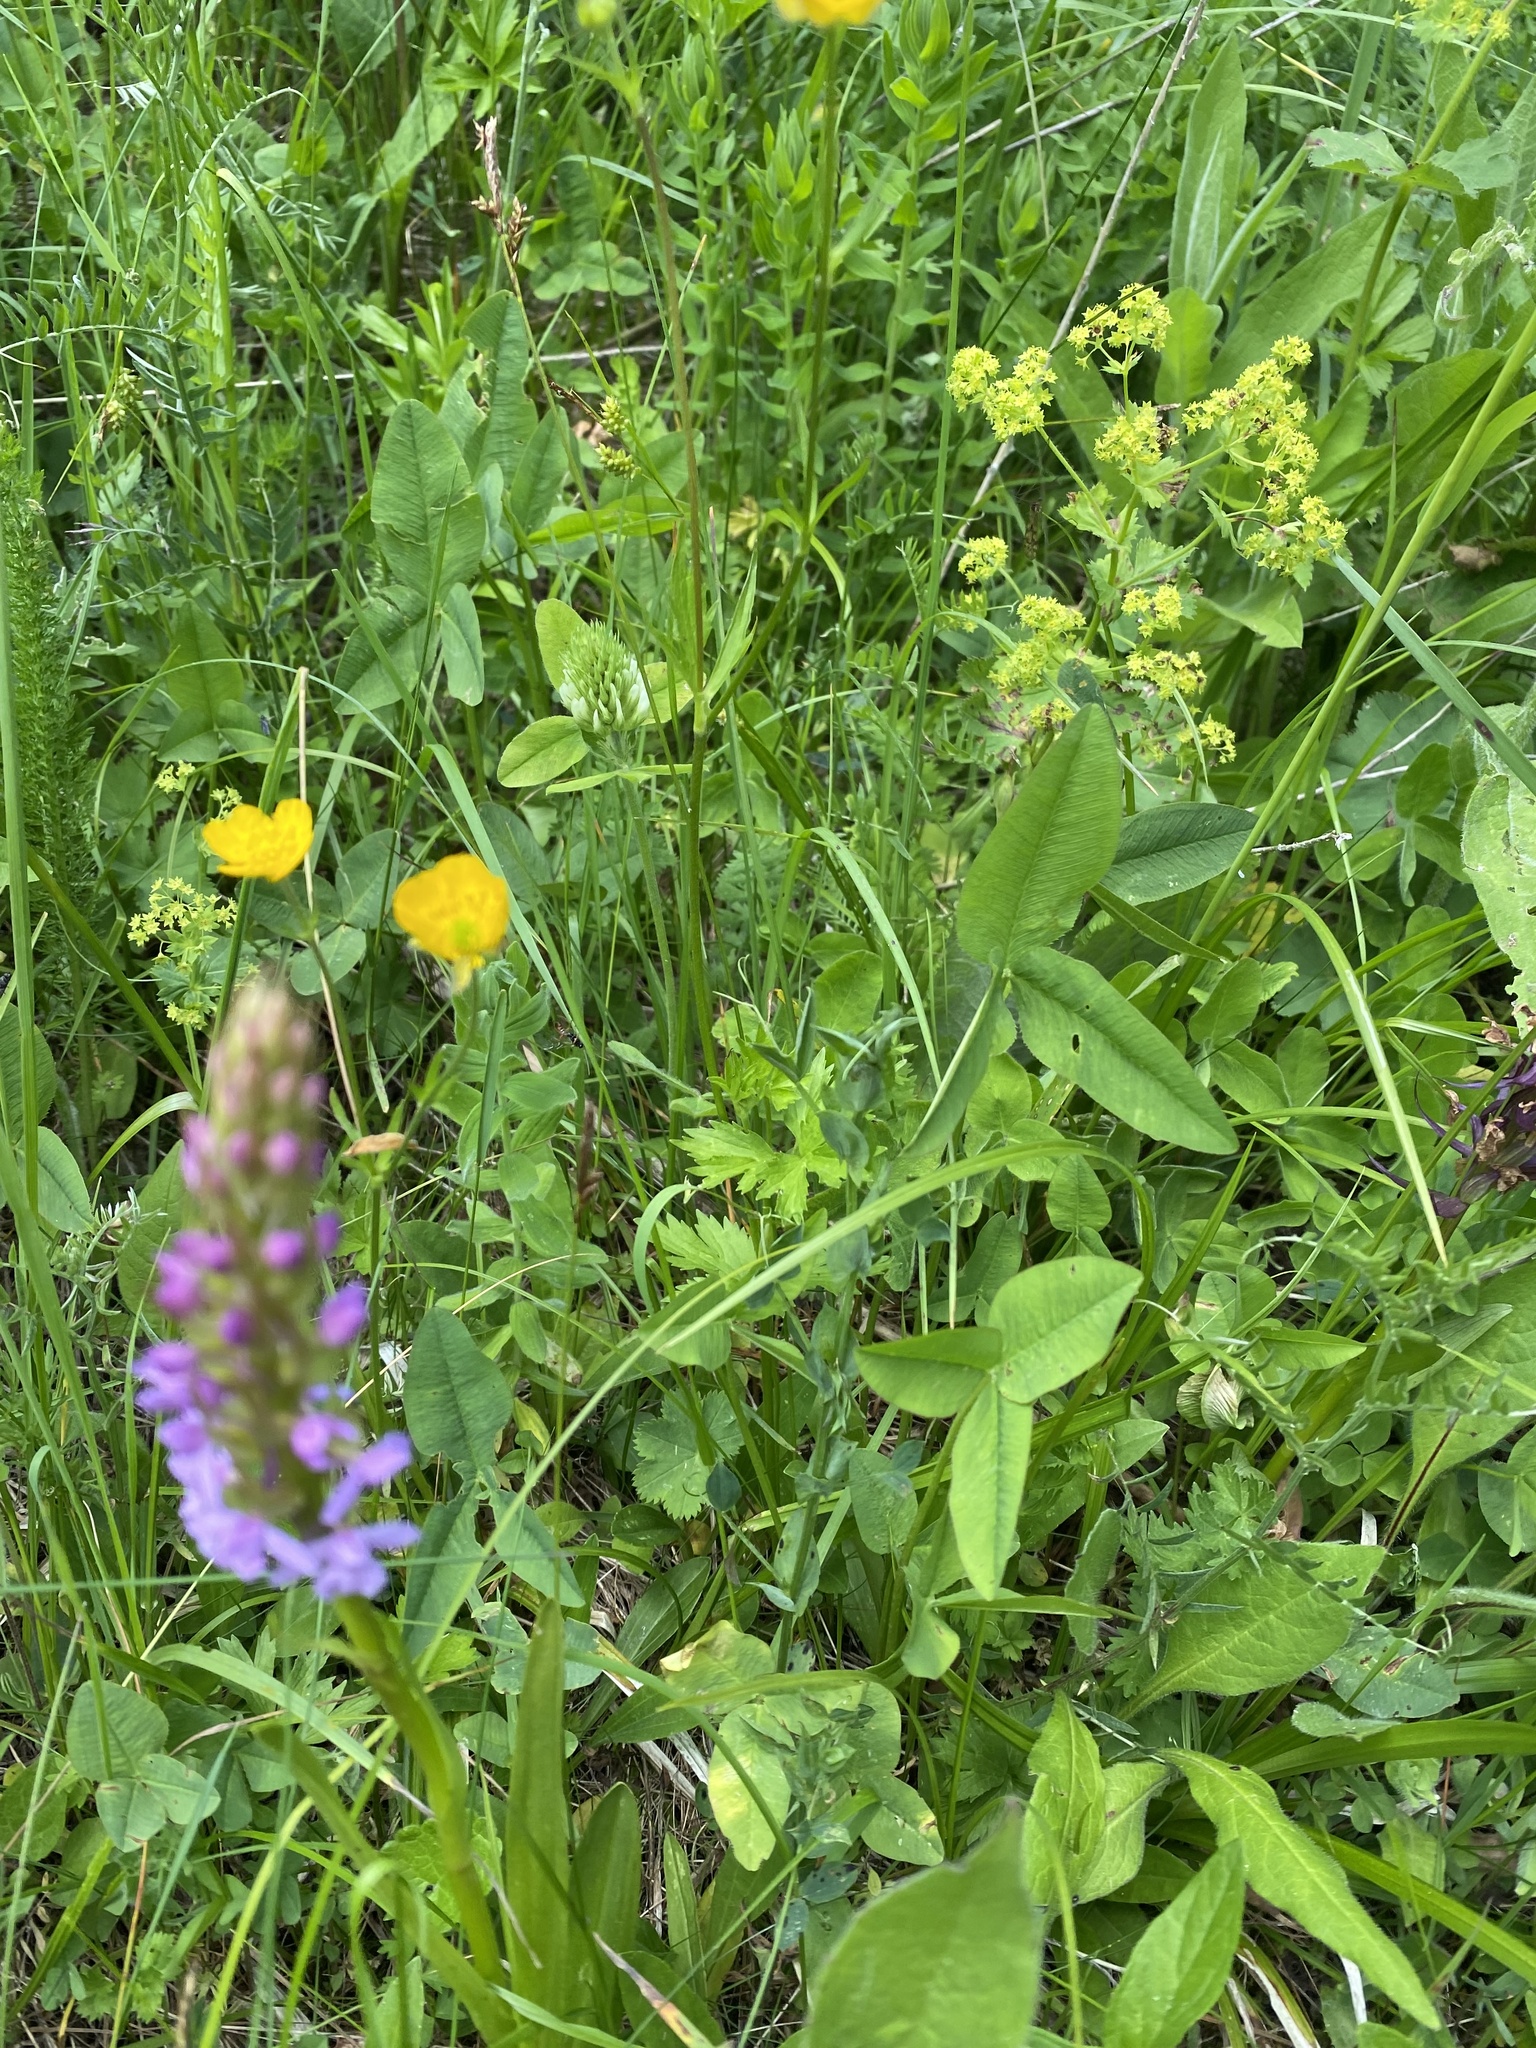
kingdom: Plantae
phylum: Tracheophyta
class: Liliopsida
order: Asparagales
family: Orchidaceae
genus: Gymnadenia
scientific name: Gymnadenia conopsea
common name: Fragrant orchid
